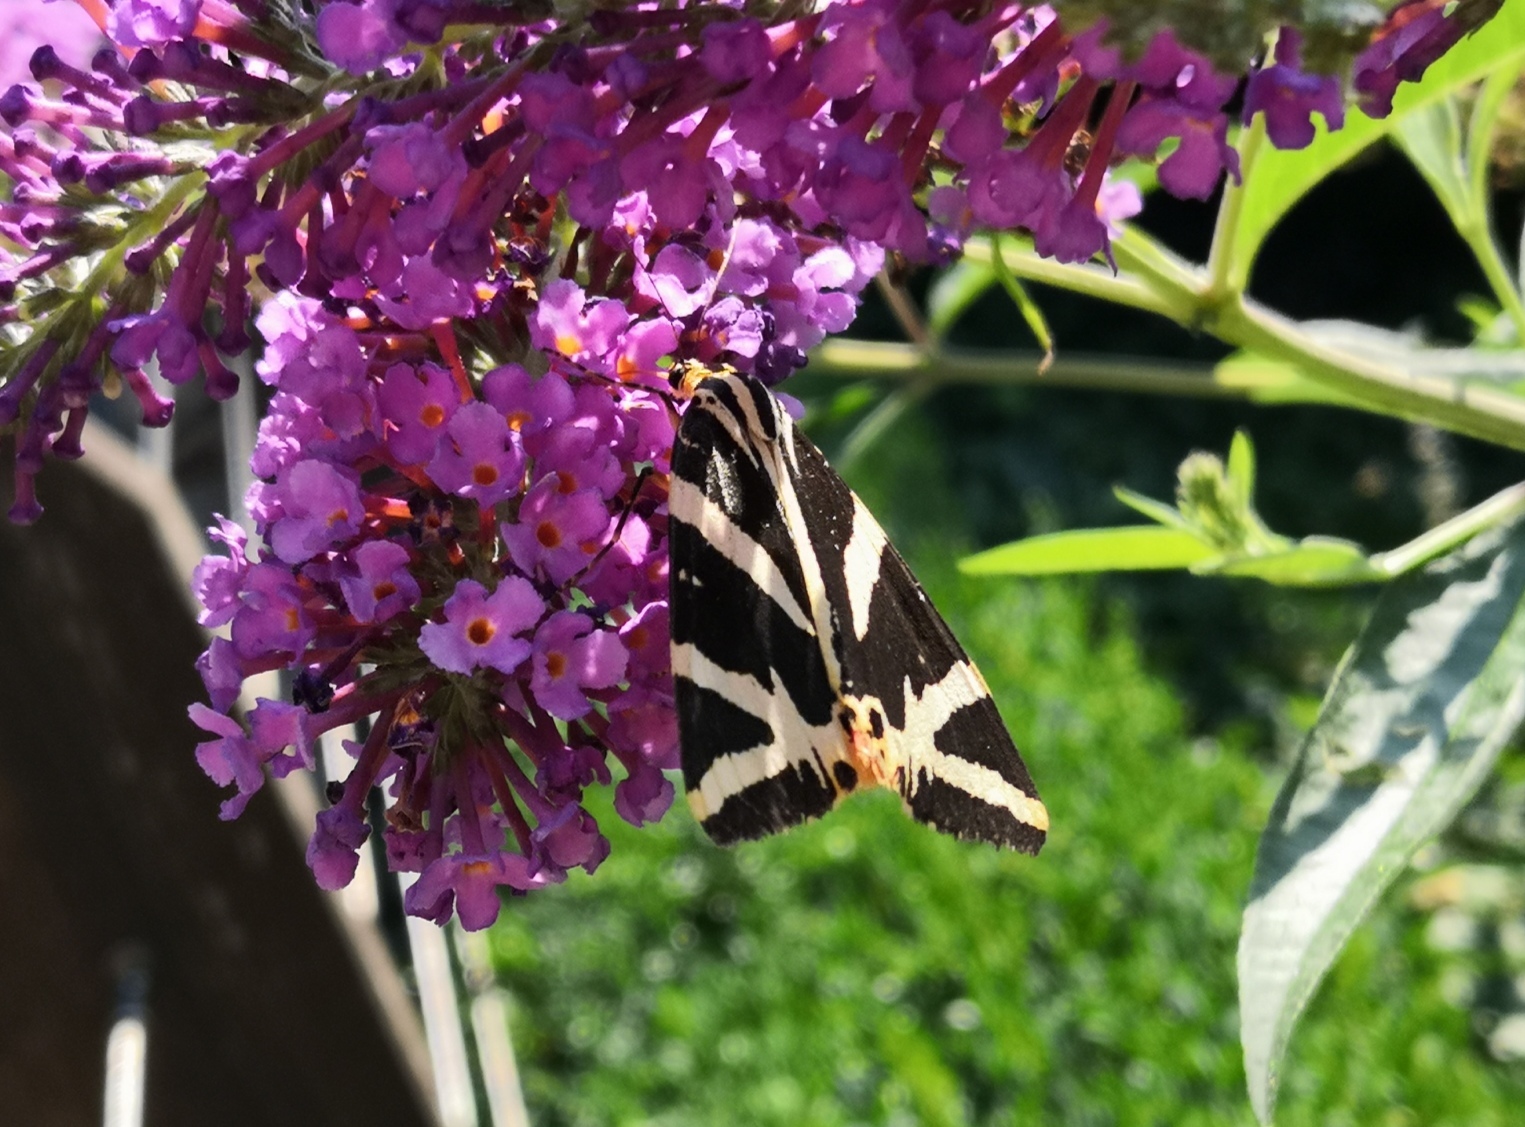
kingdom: Animalia
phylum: Arthropoda
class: Insecta
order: Lepidoptera
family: Erebidae
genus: Euplagia
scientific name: Euplagia quadripunctaria
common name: Jersey tiger
